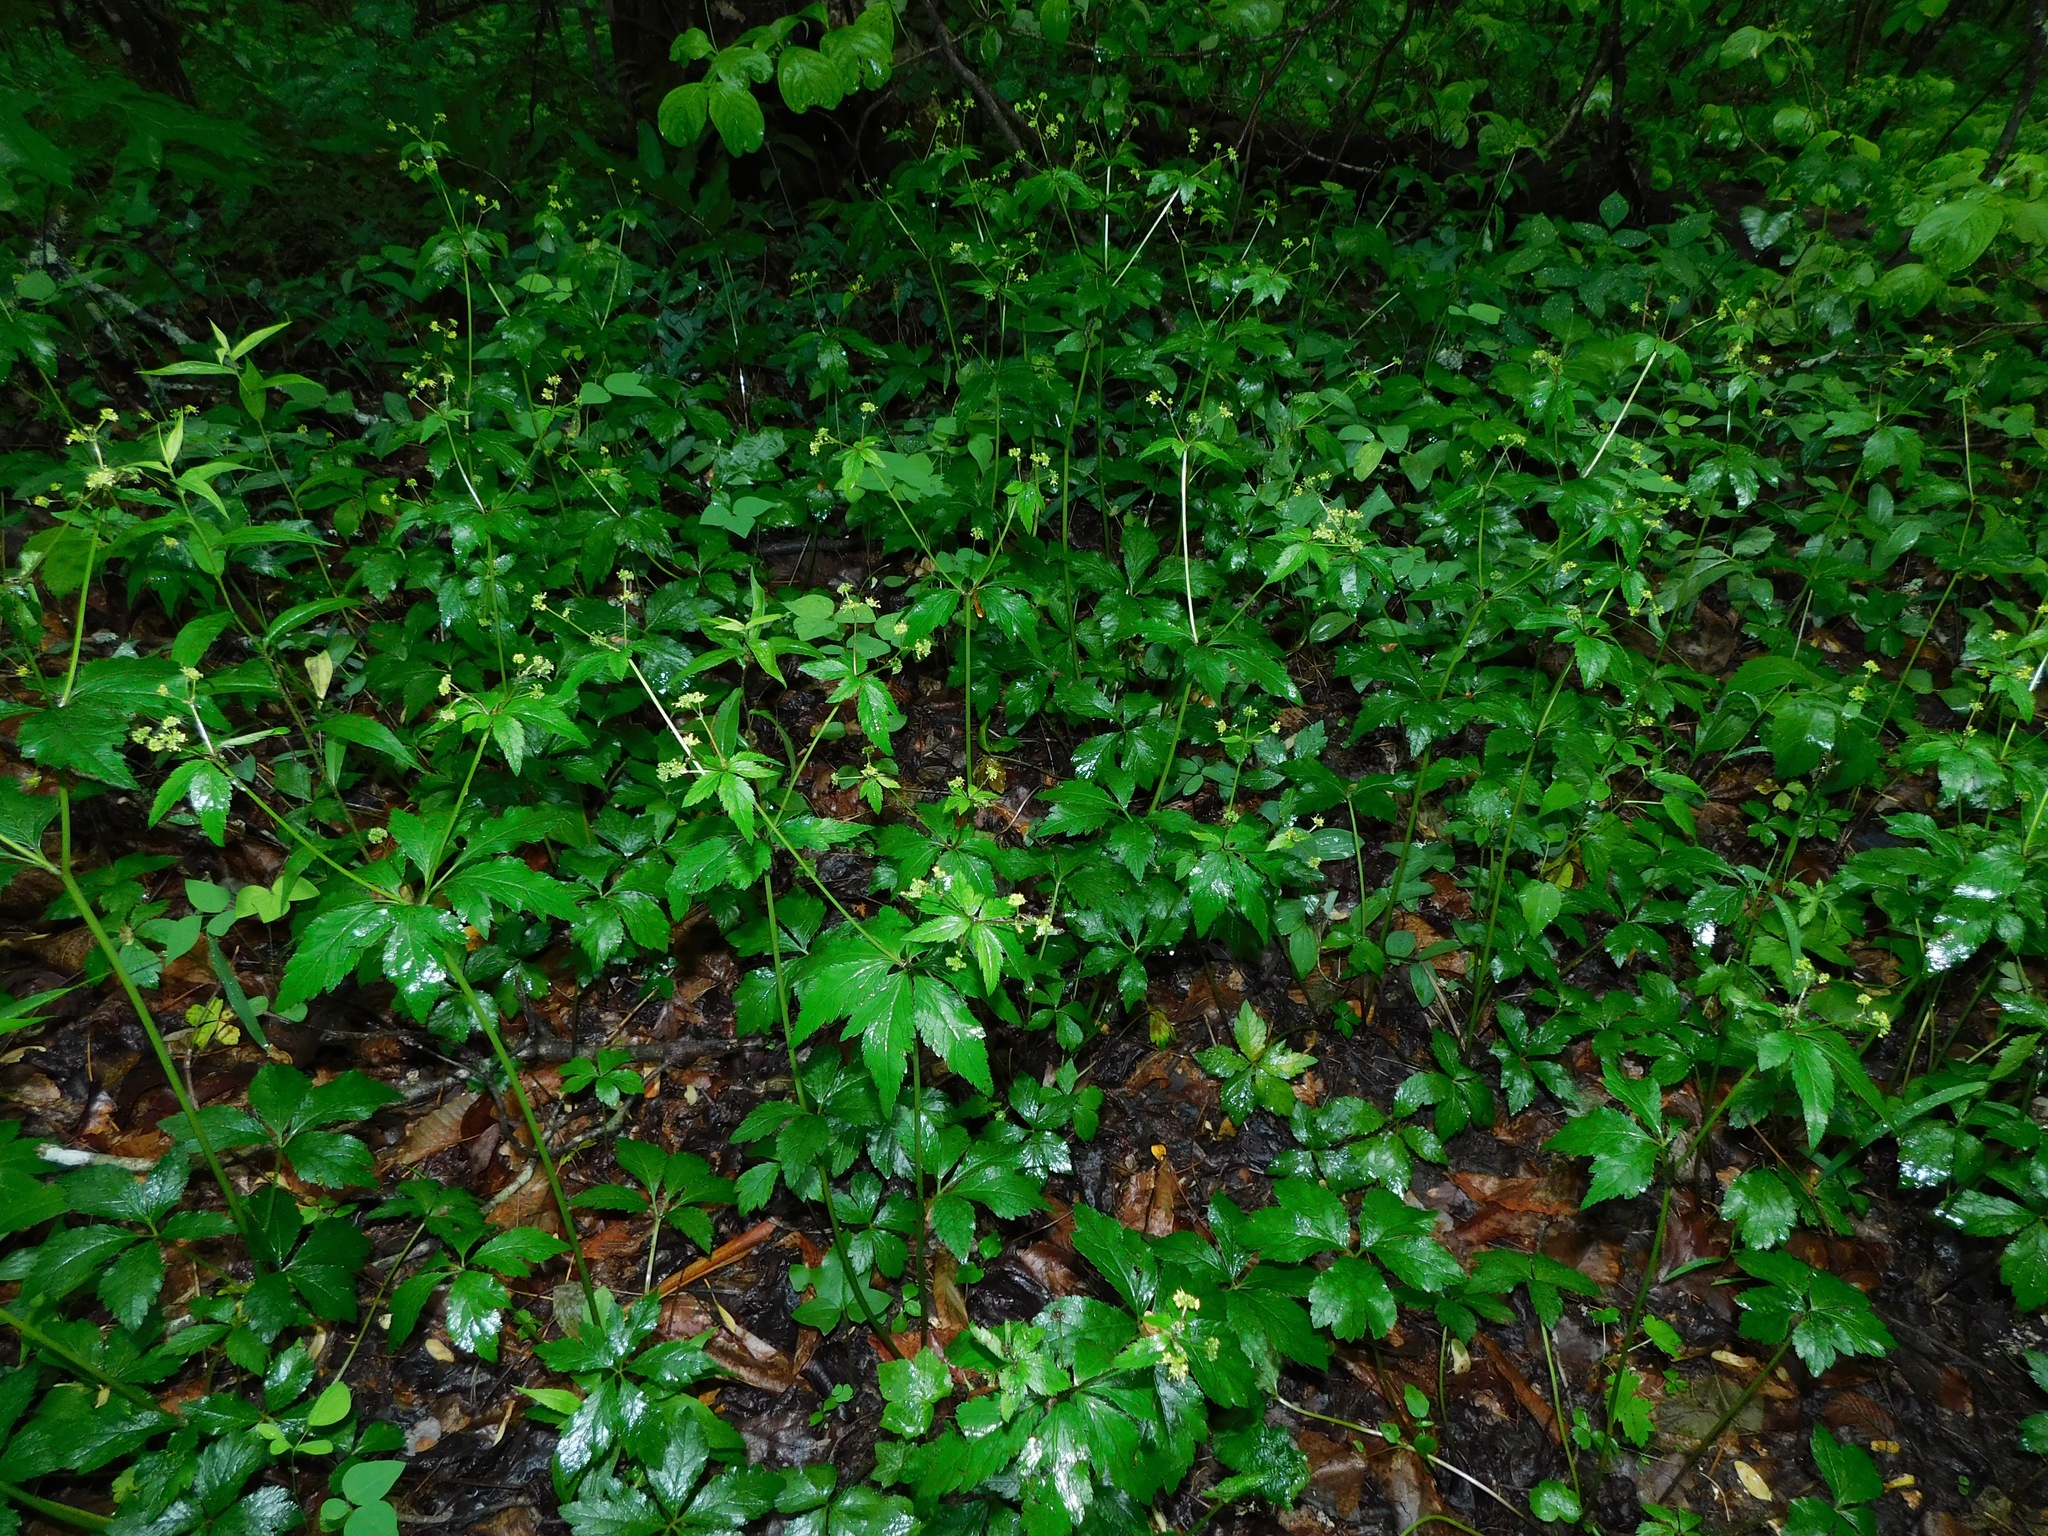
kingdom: Plantae
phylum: Tracheophyta
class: Magnoliopsida
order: Apiales
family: Apiaceae
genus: Sanicula
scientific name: Sanicula canadensis
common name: Canada sanicle
